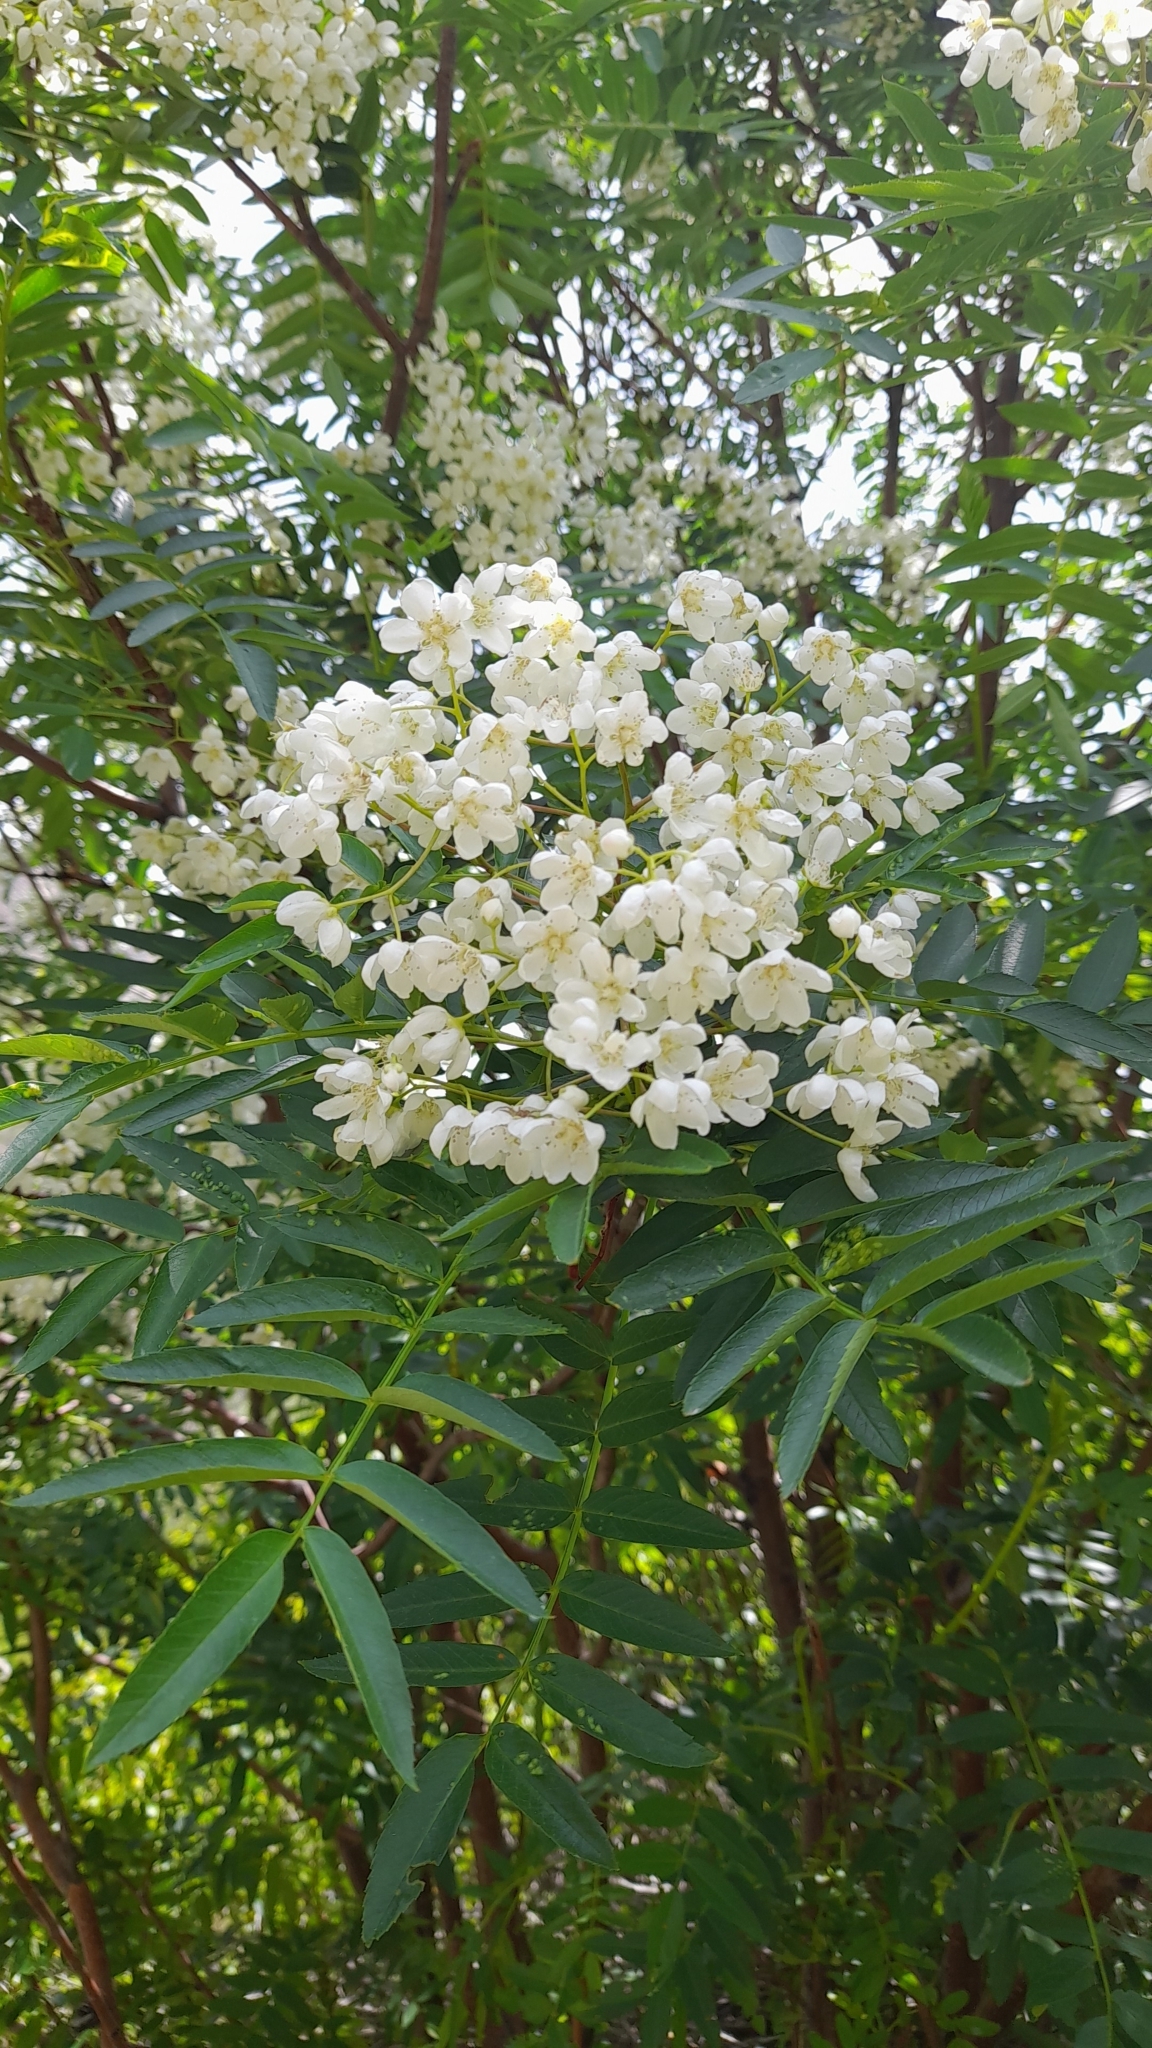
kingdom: Plantae
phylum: Tracheophyta
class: Magnoliopsida
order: Rosales
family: Rosaceae
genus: Sorbus
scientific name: Sorbus tianschanica
